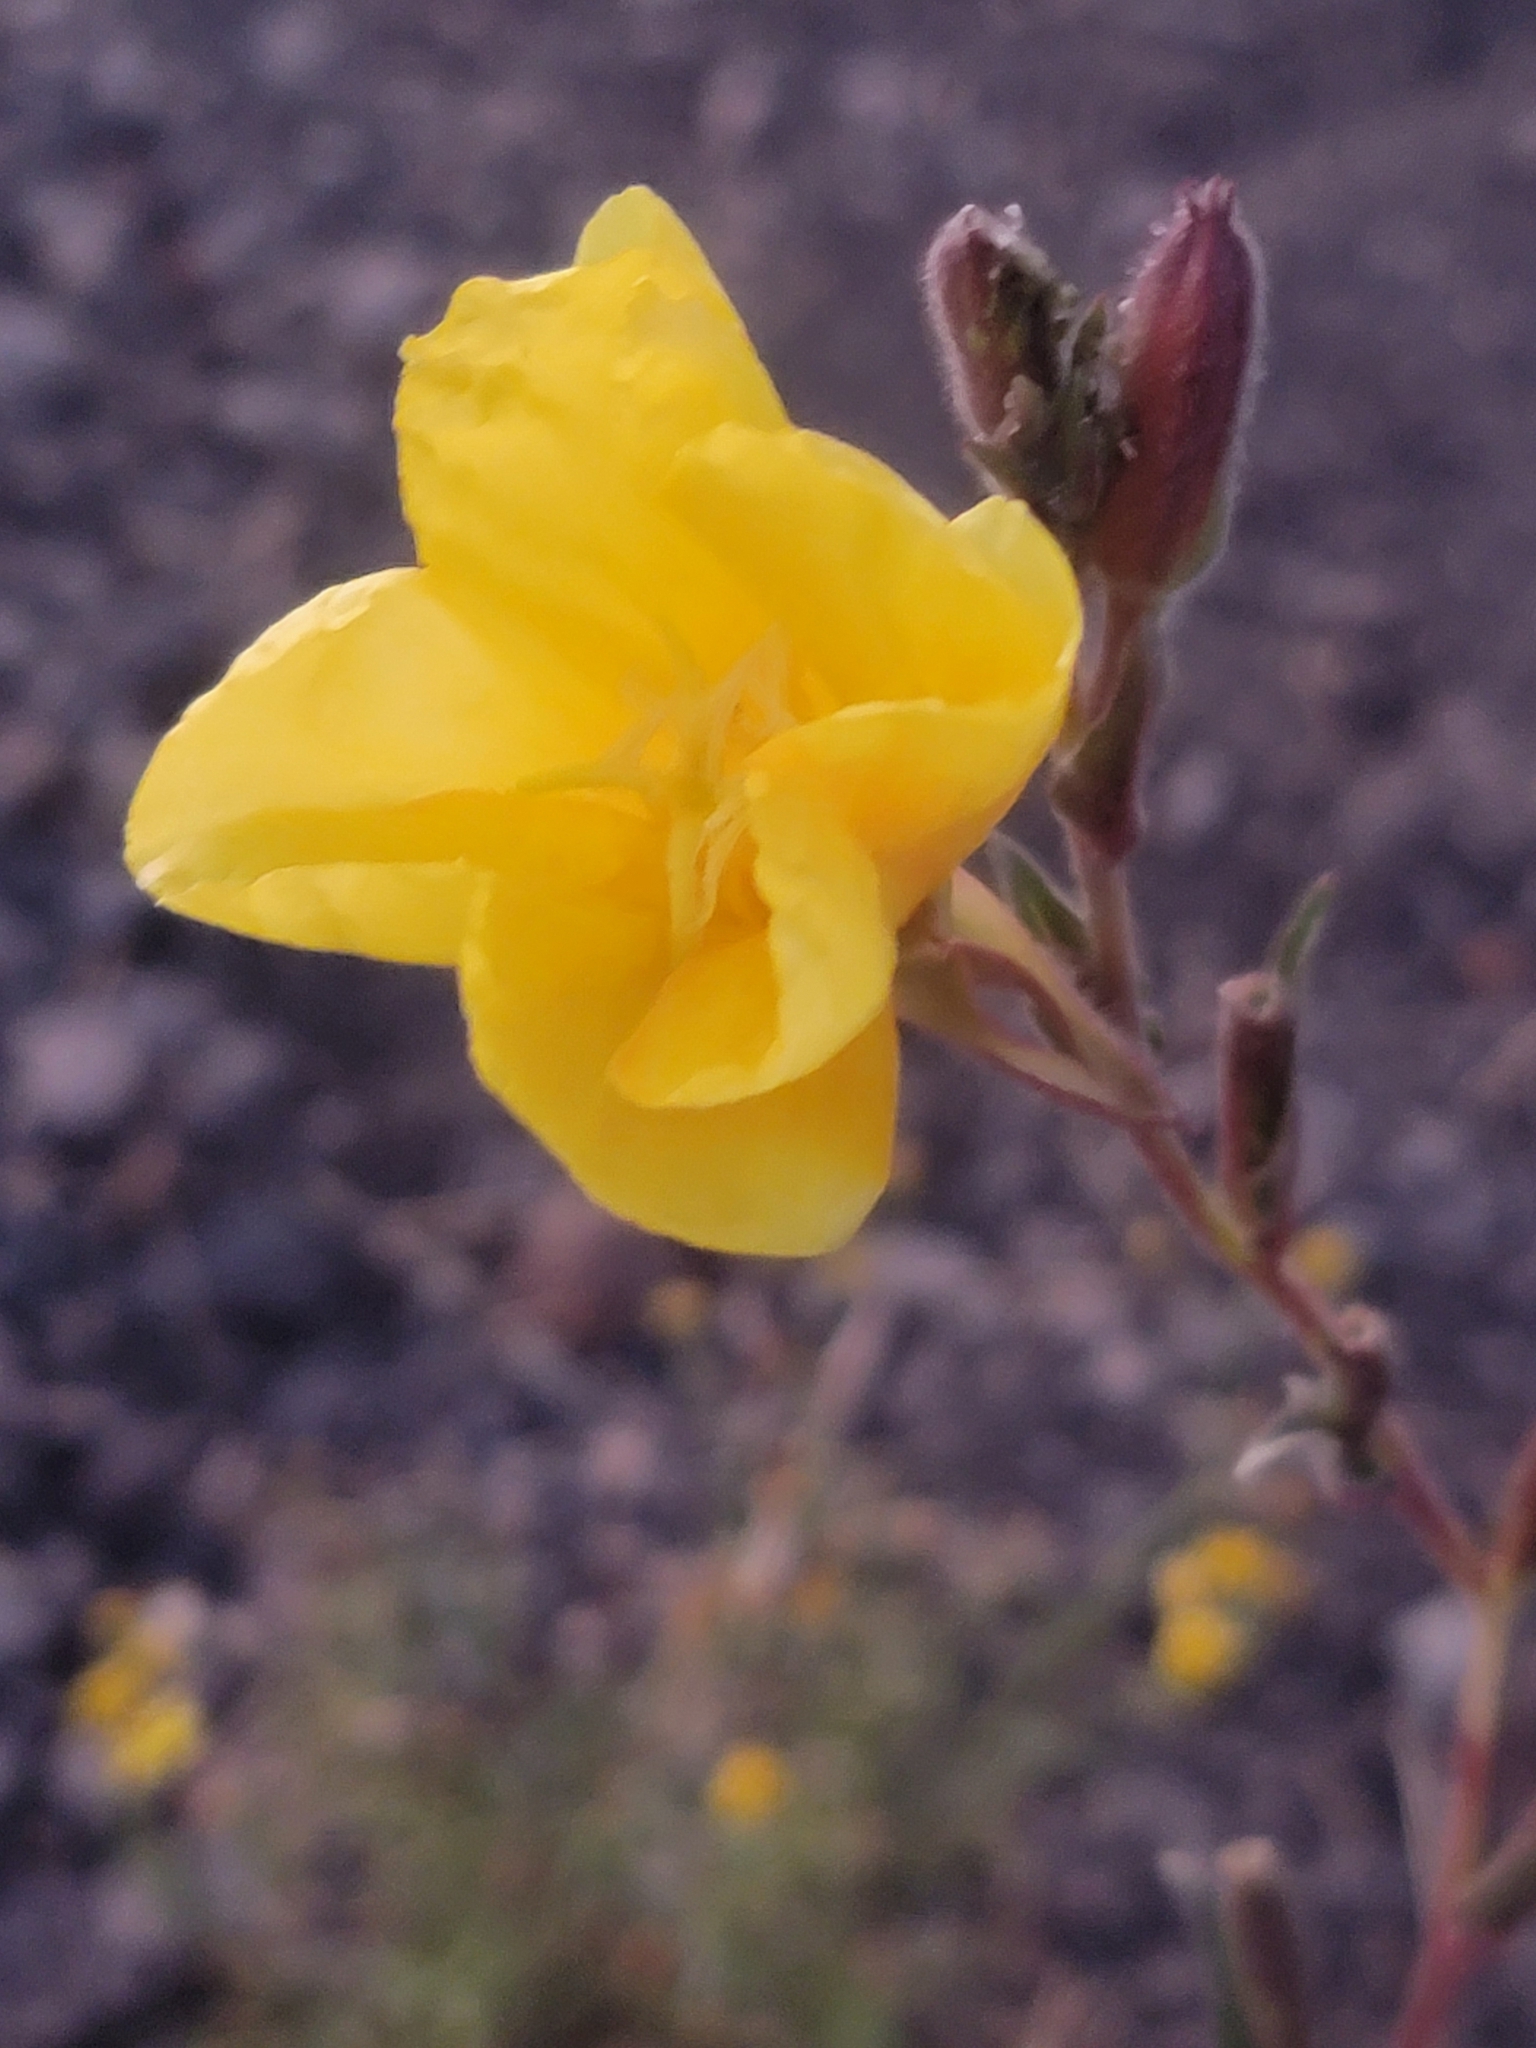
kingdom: Plantae
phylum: Tracheophyta
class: Magnoliopsida
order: Myrtales
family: Onagraceae
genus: Oenothera
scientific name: Oenothera stricta
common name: Fragrant evening-primrose
